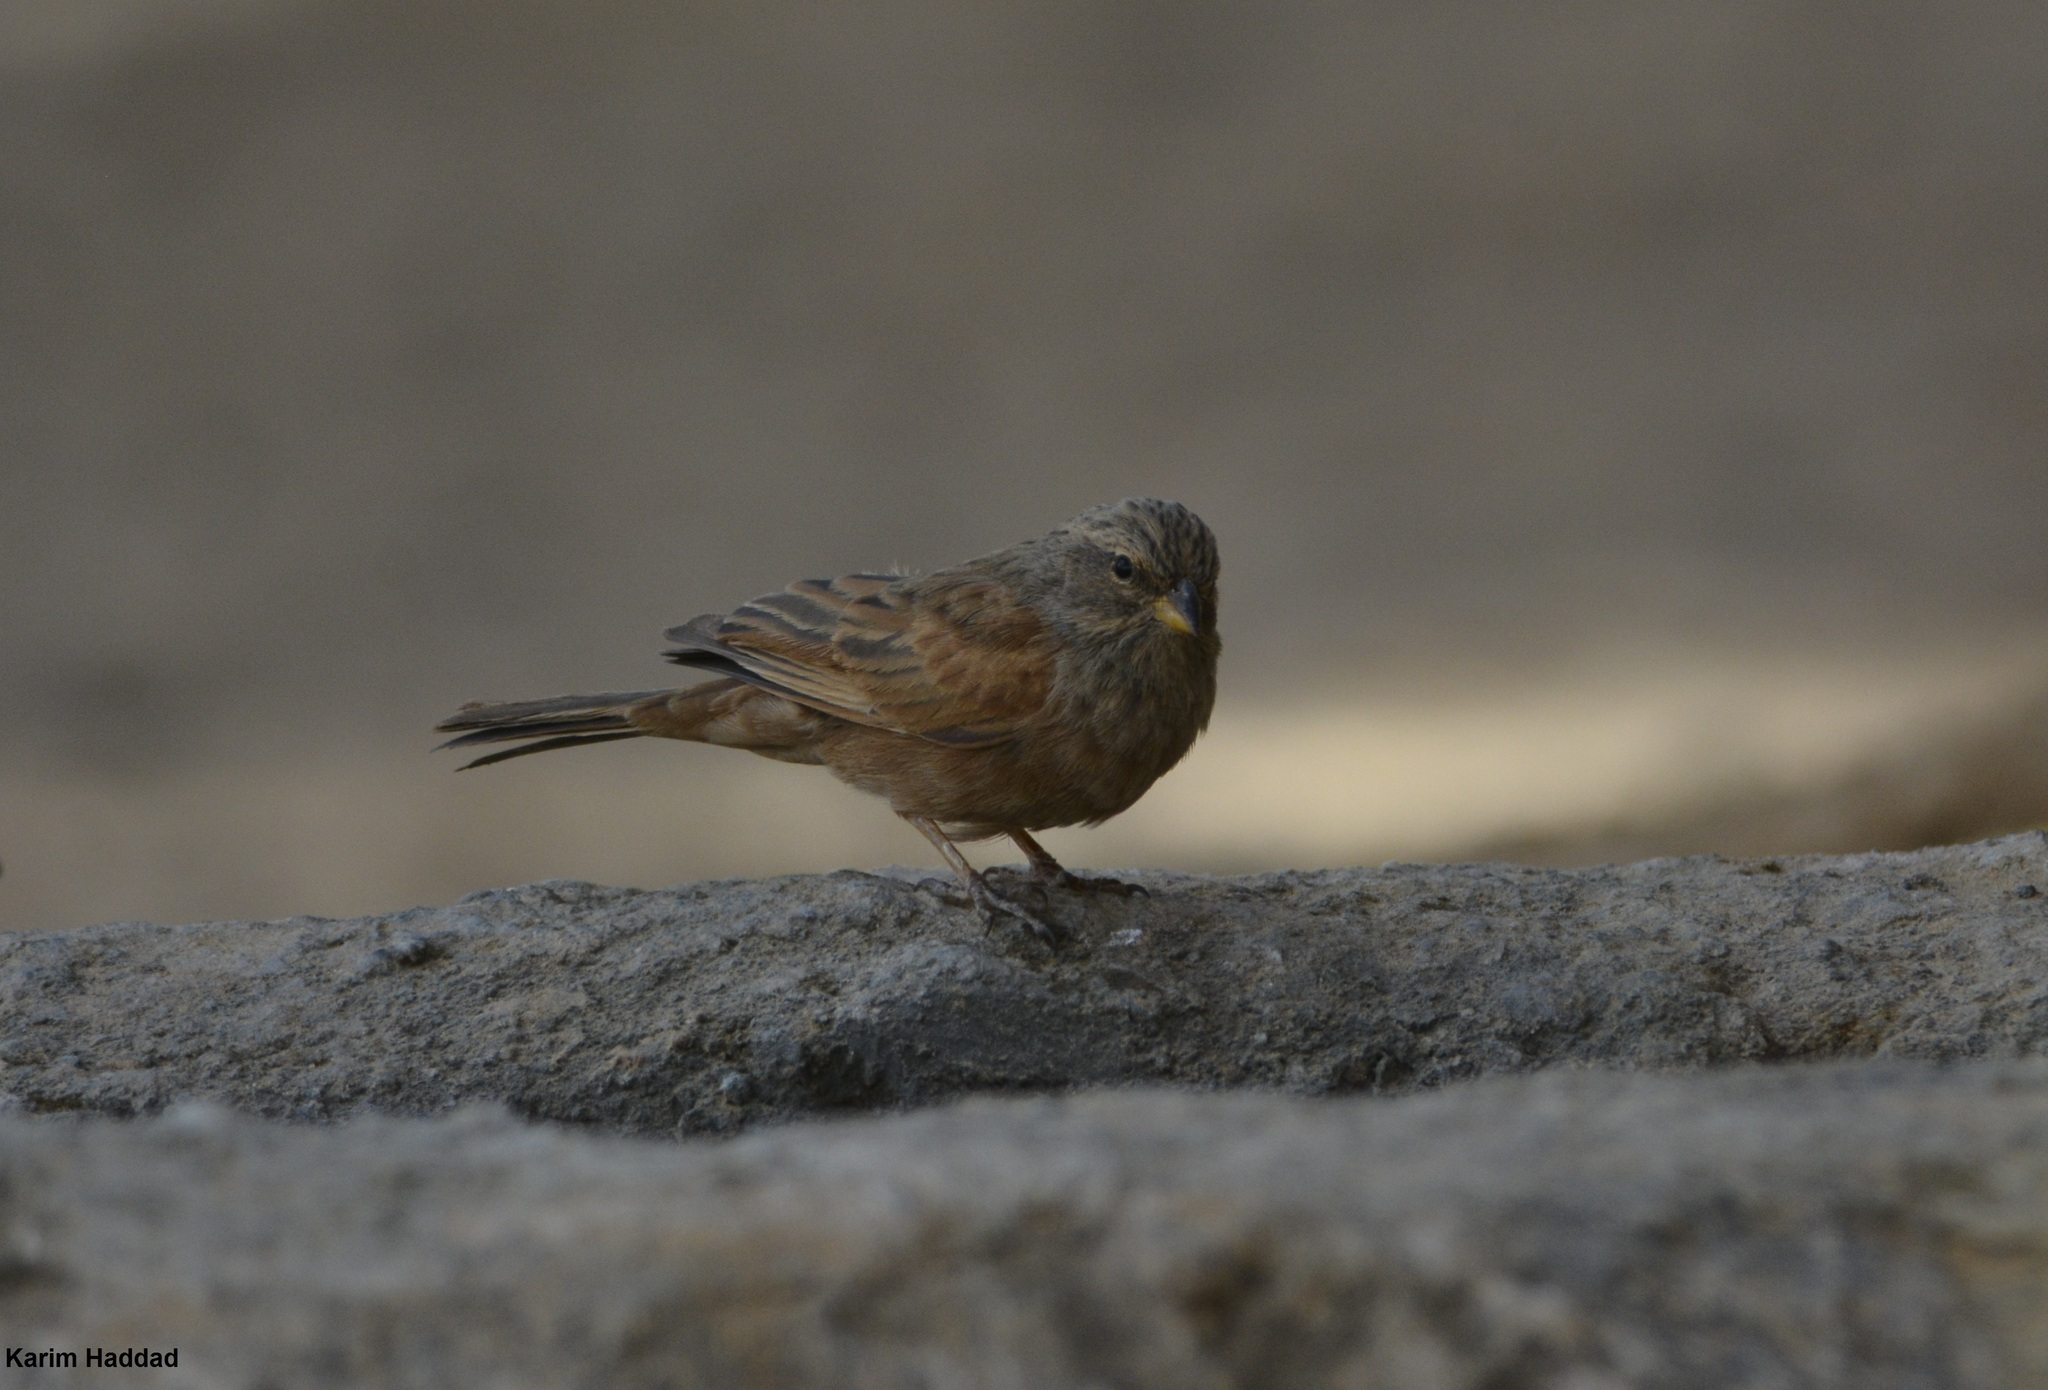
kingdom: Animalia
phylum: Chordata
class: Aves
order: Passeriformes
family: Emberizidae
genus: Emberiza
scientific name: Emberiza sahari
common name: House bunting
